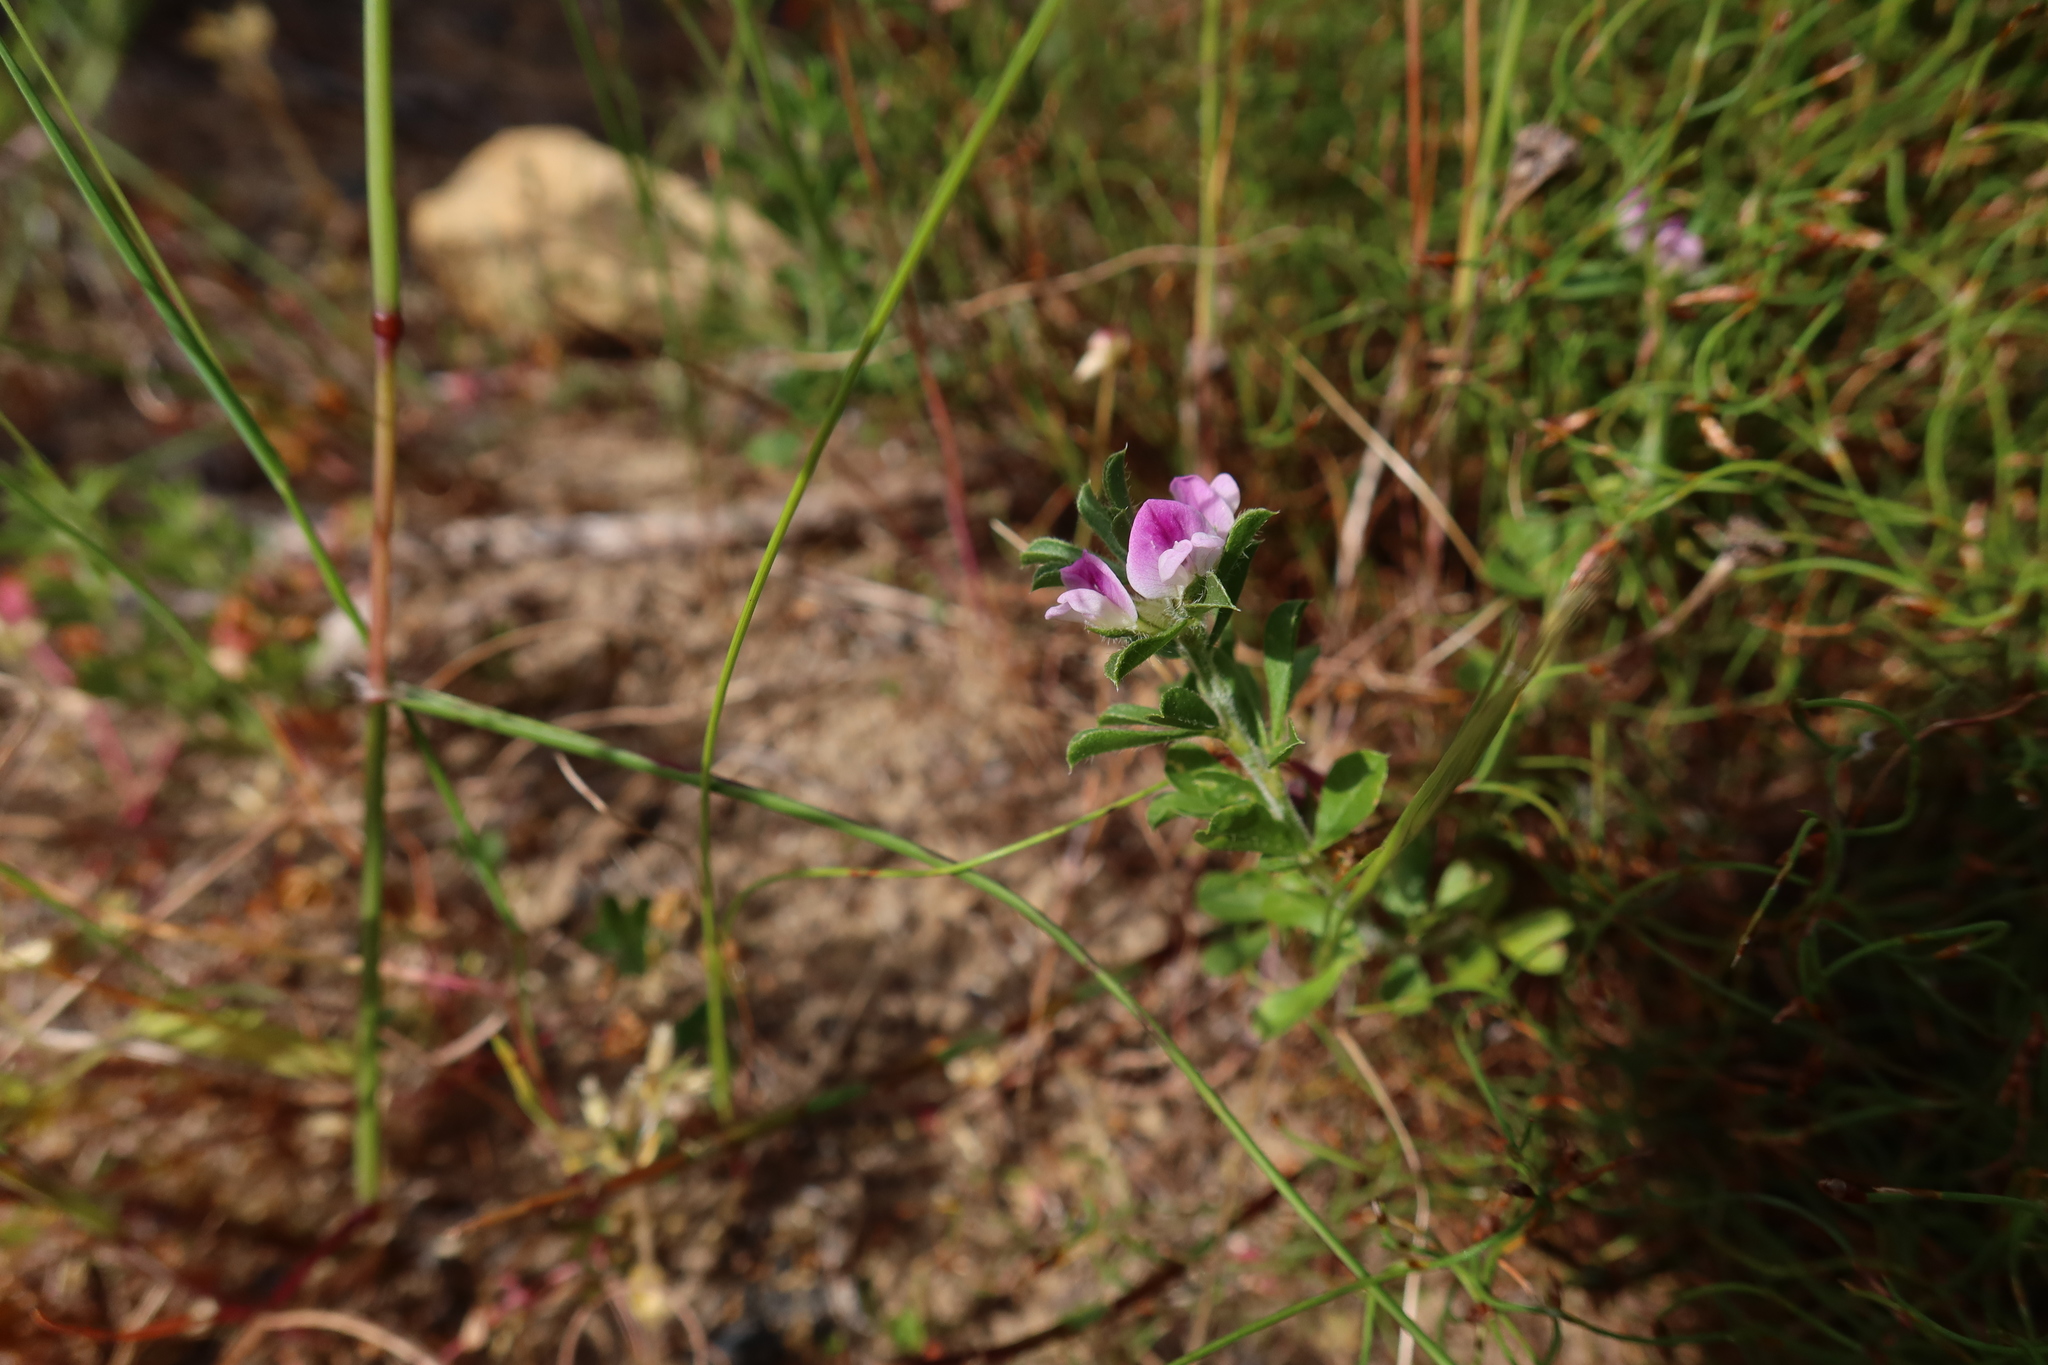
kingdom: Plantae
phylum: Tracheophyta
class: Magnoliopsida
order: Fabales
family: Fabaceae
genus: Psoralea
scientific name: Psoralea
